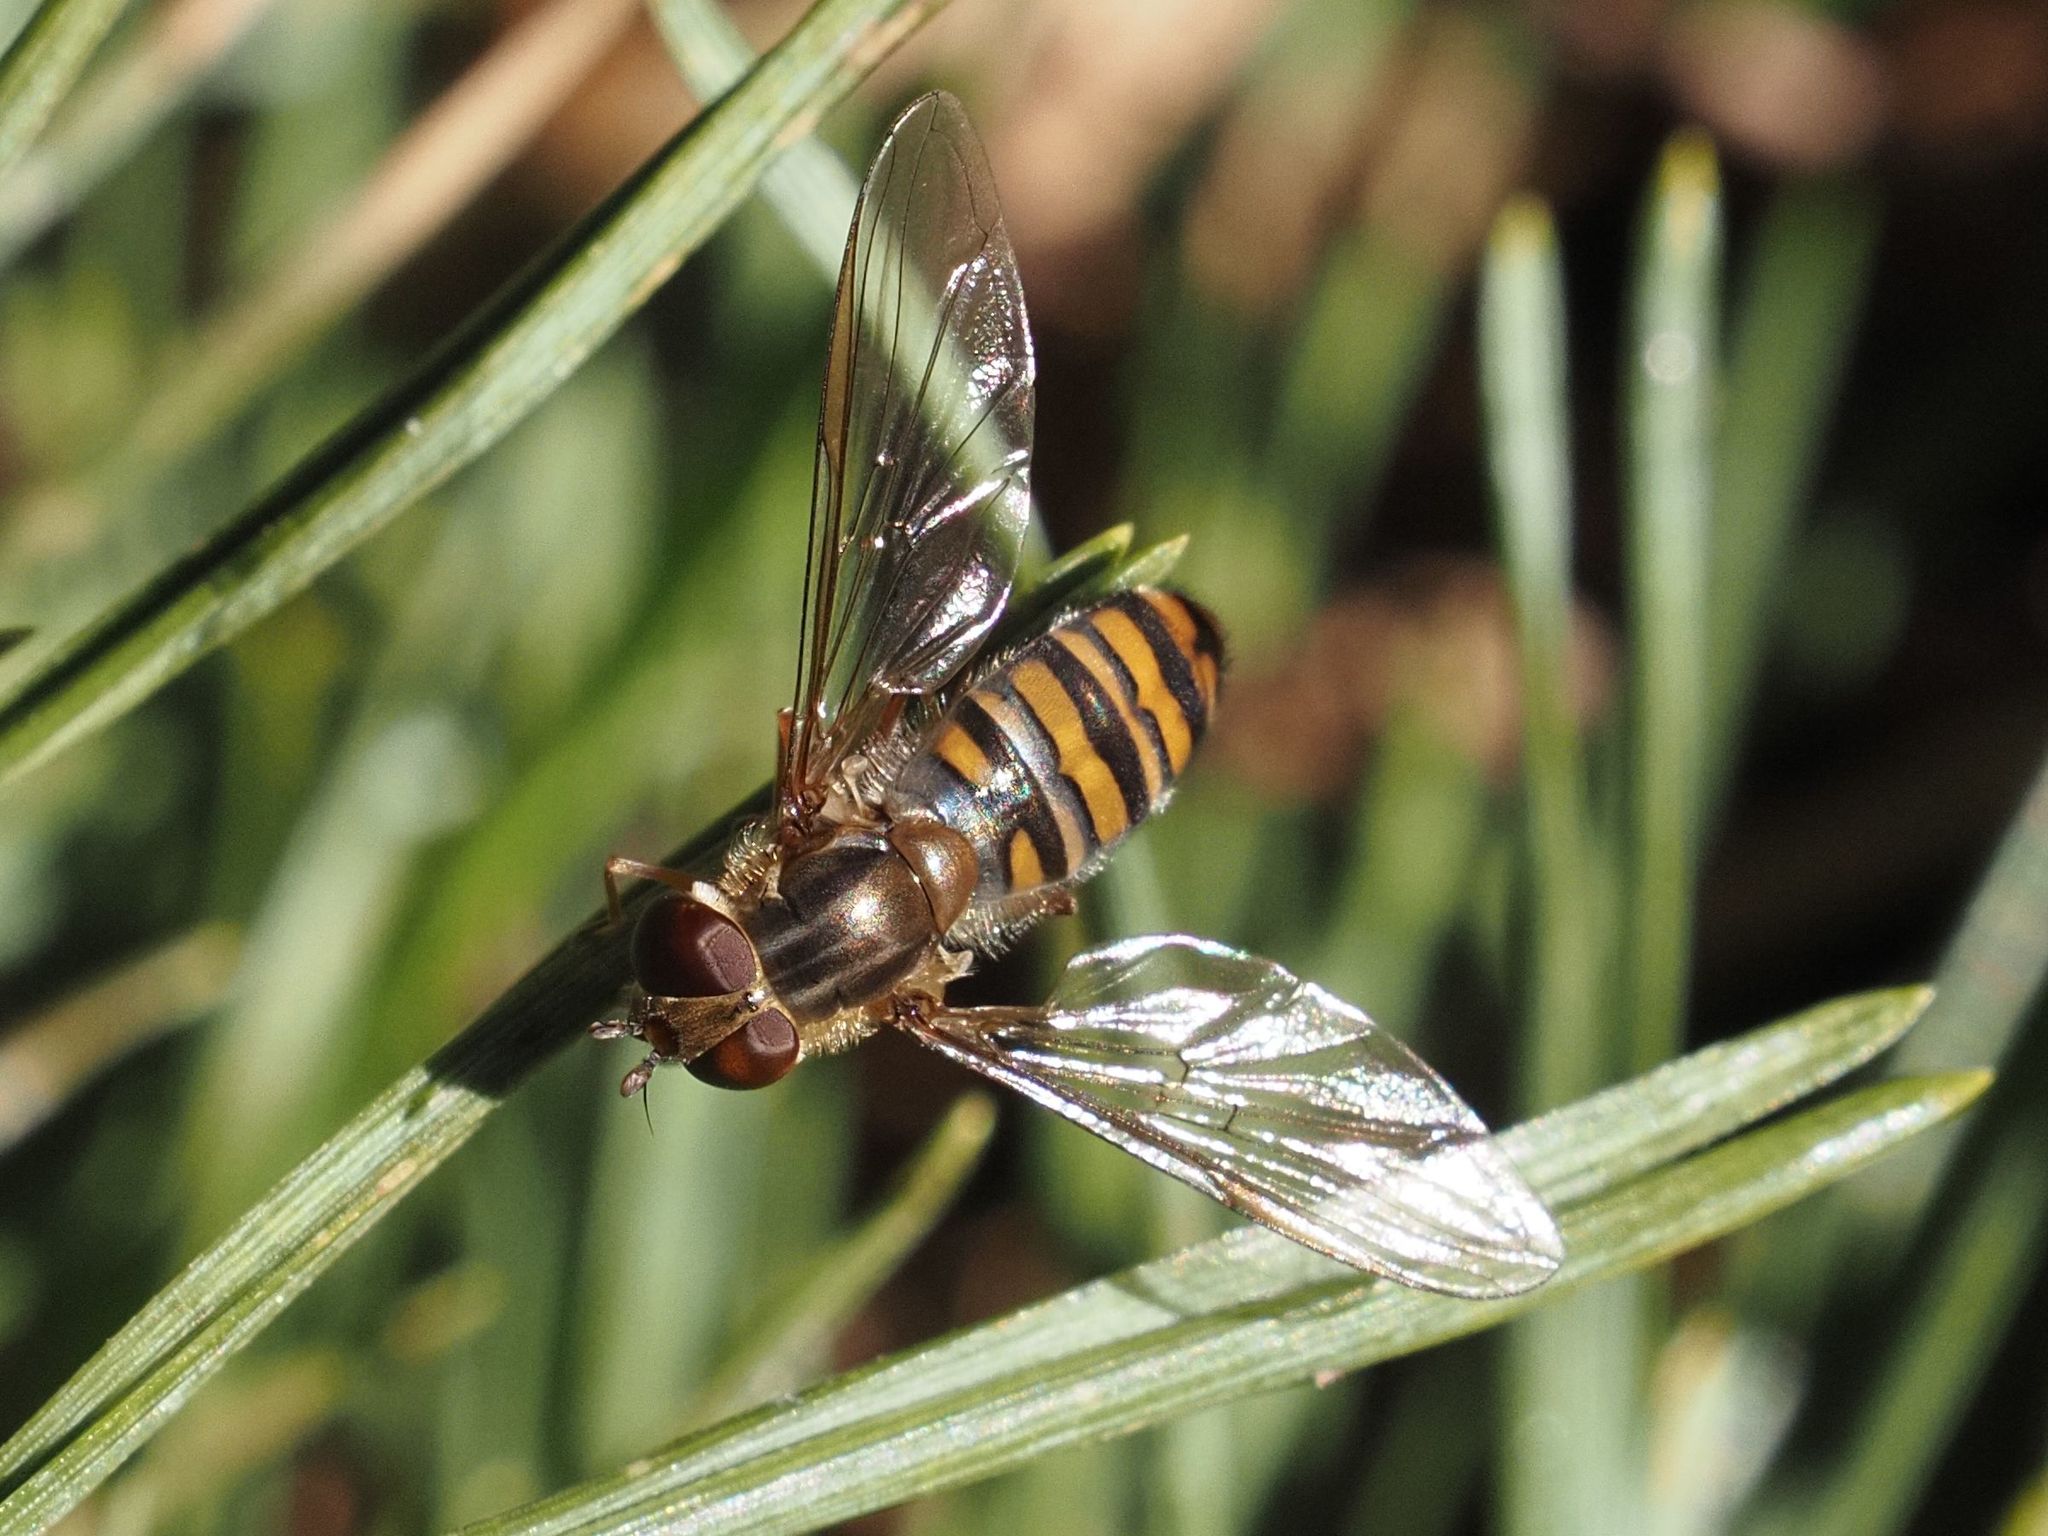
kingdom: Animalia
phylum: Arthropoda
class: Insecta
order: Diptera
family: Syrphidae
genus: Episyrphus
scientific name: Episyrphus balteatus
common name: Marmalade hoverfly
